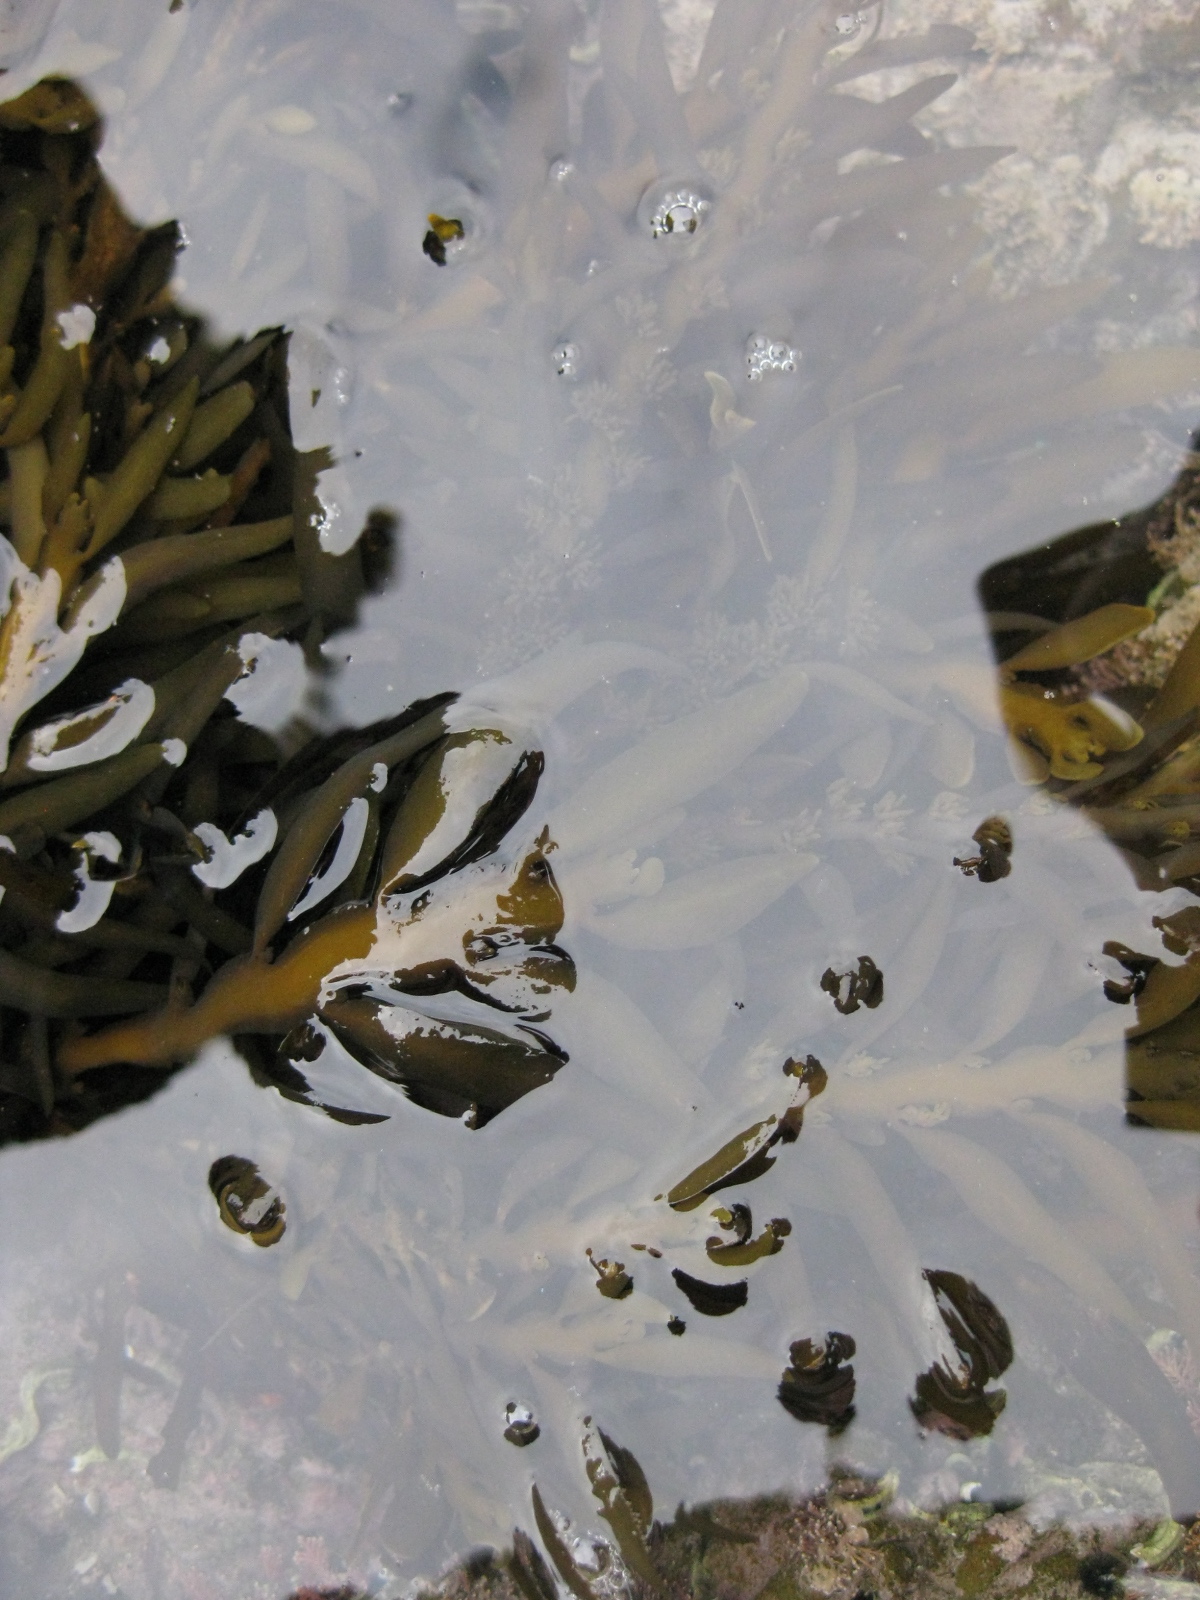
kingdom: Chromista
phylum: Ochrophyta
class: Phaeophyceae
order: Fucales
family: Sargassaceae
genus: Carpophyllum
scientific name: Carpophyllum maschalocarpum
